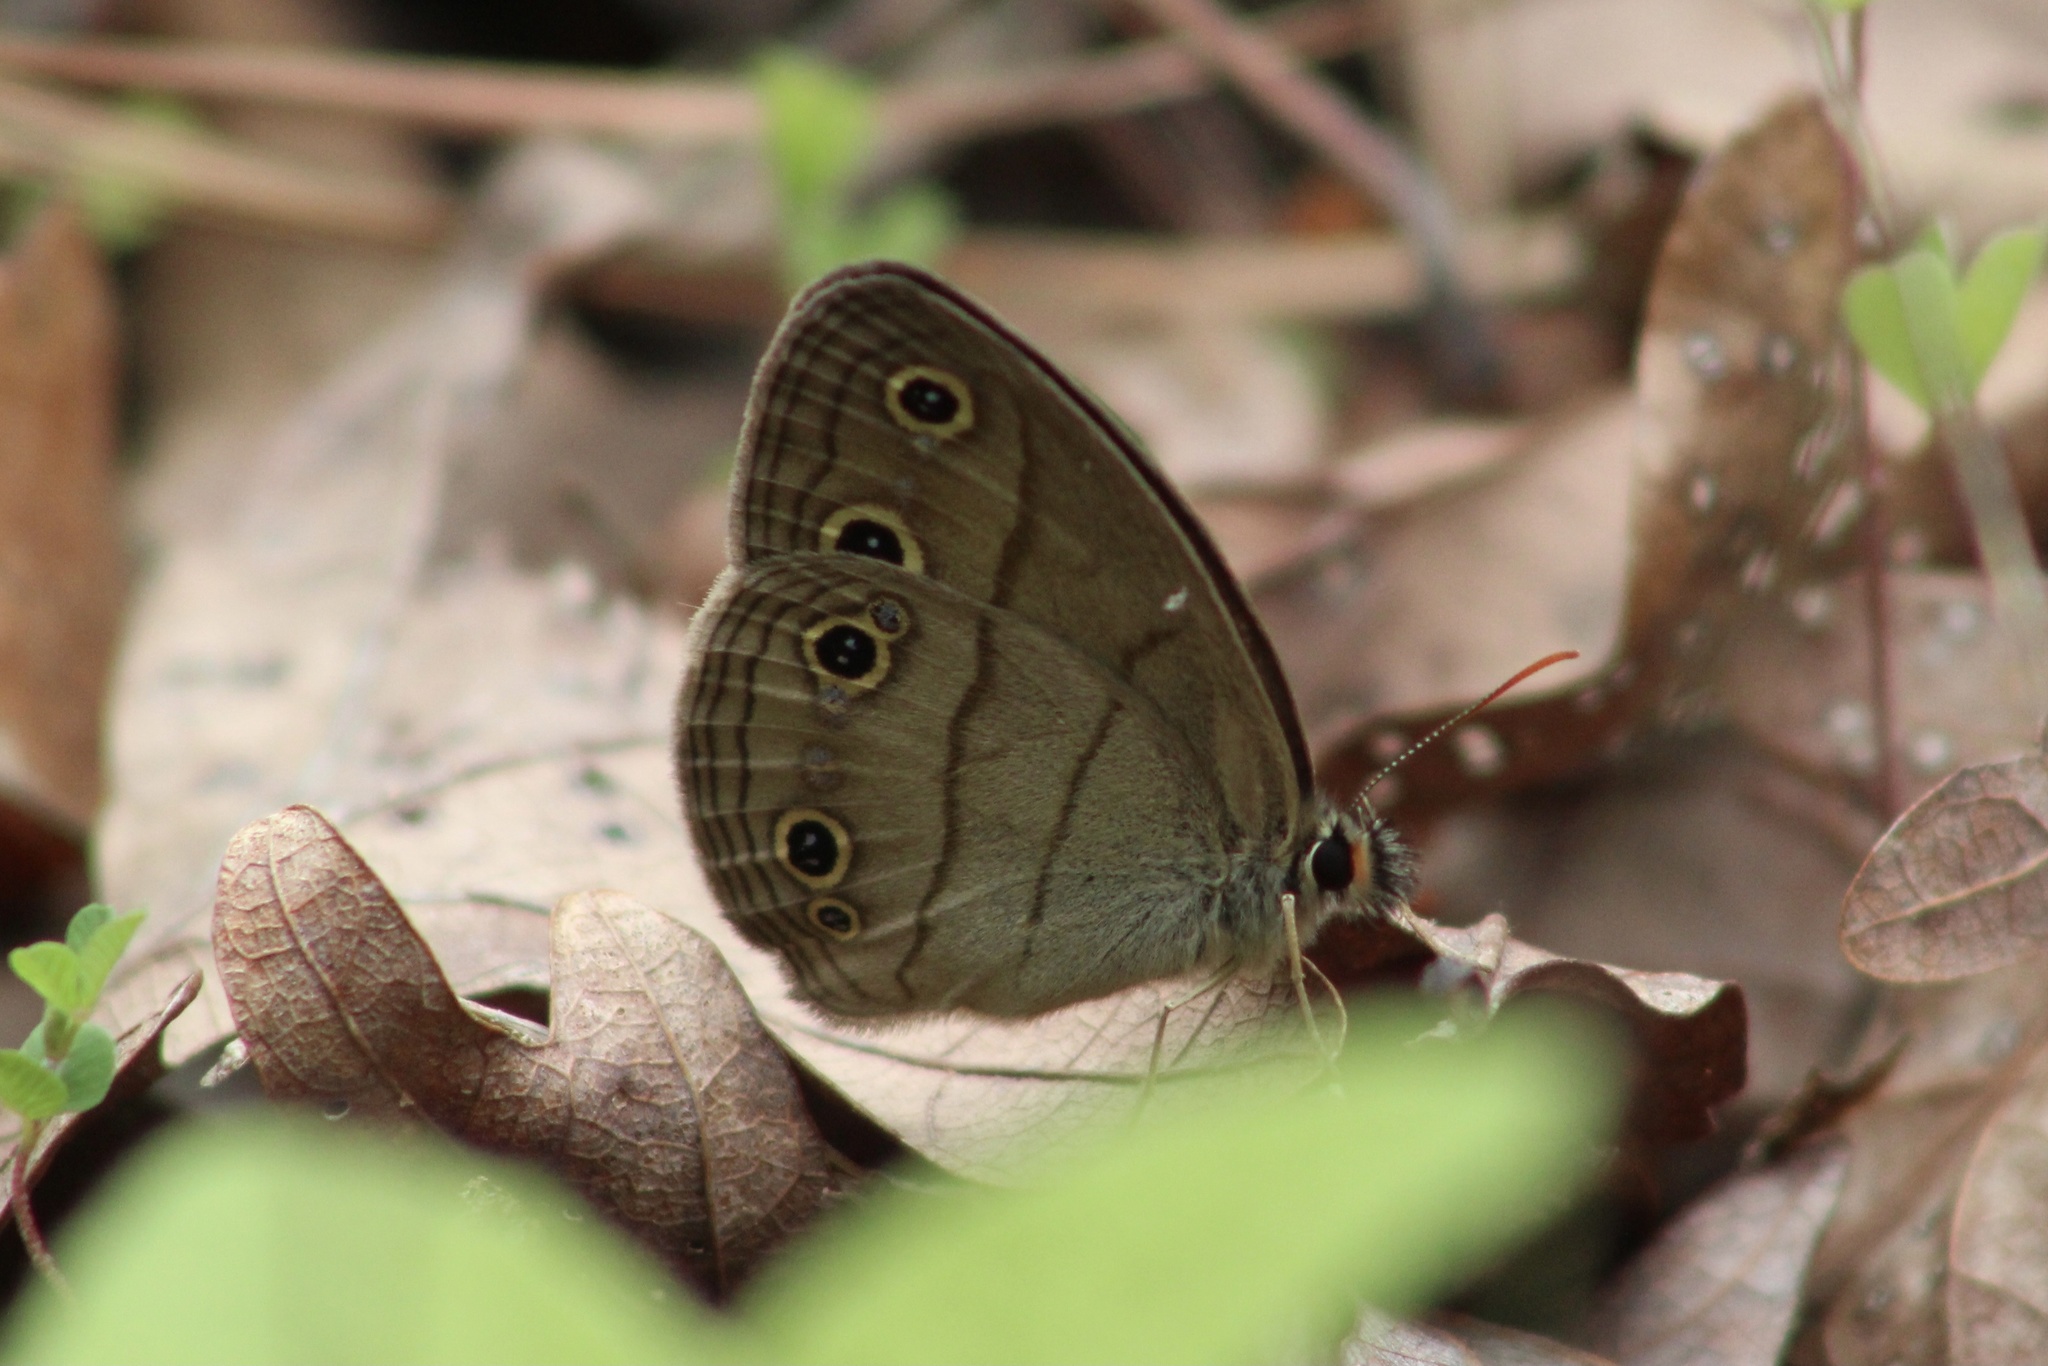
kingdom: Animalia
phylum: Arthropoda
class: Insecta
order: Lepidoptera
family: Nymphalidae
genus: Euptychia
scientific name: Euptychia cymela
